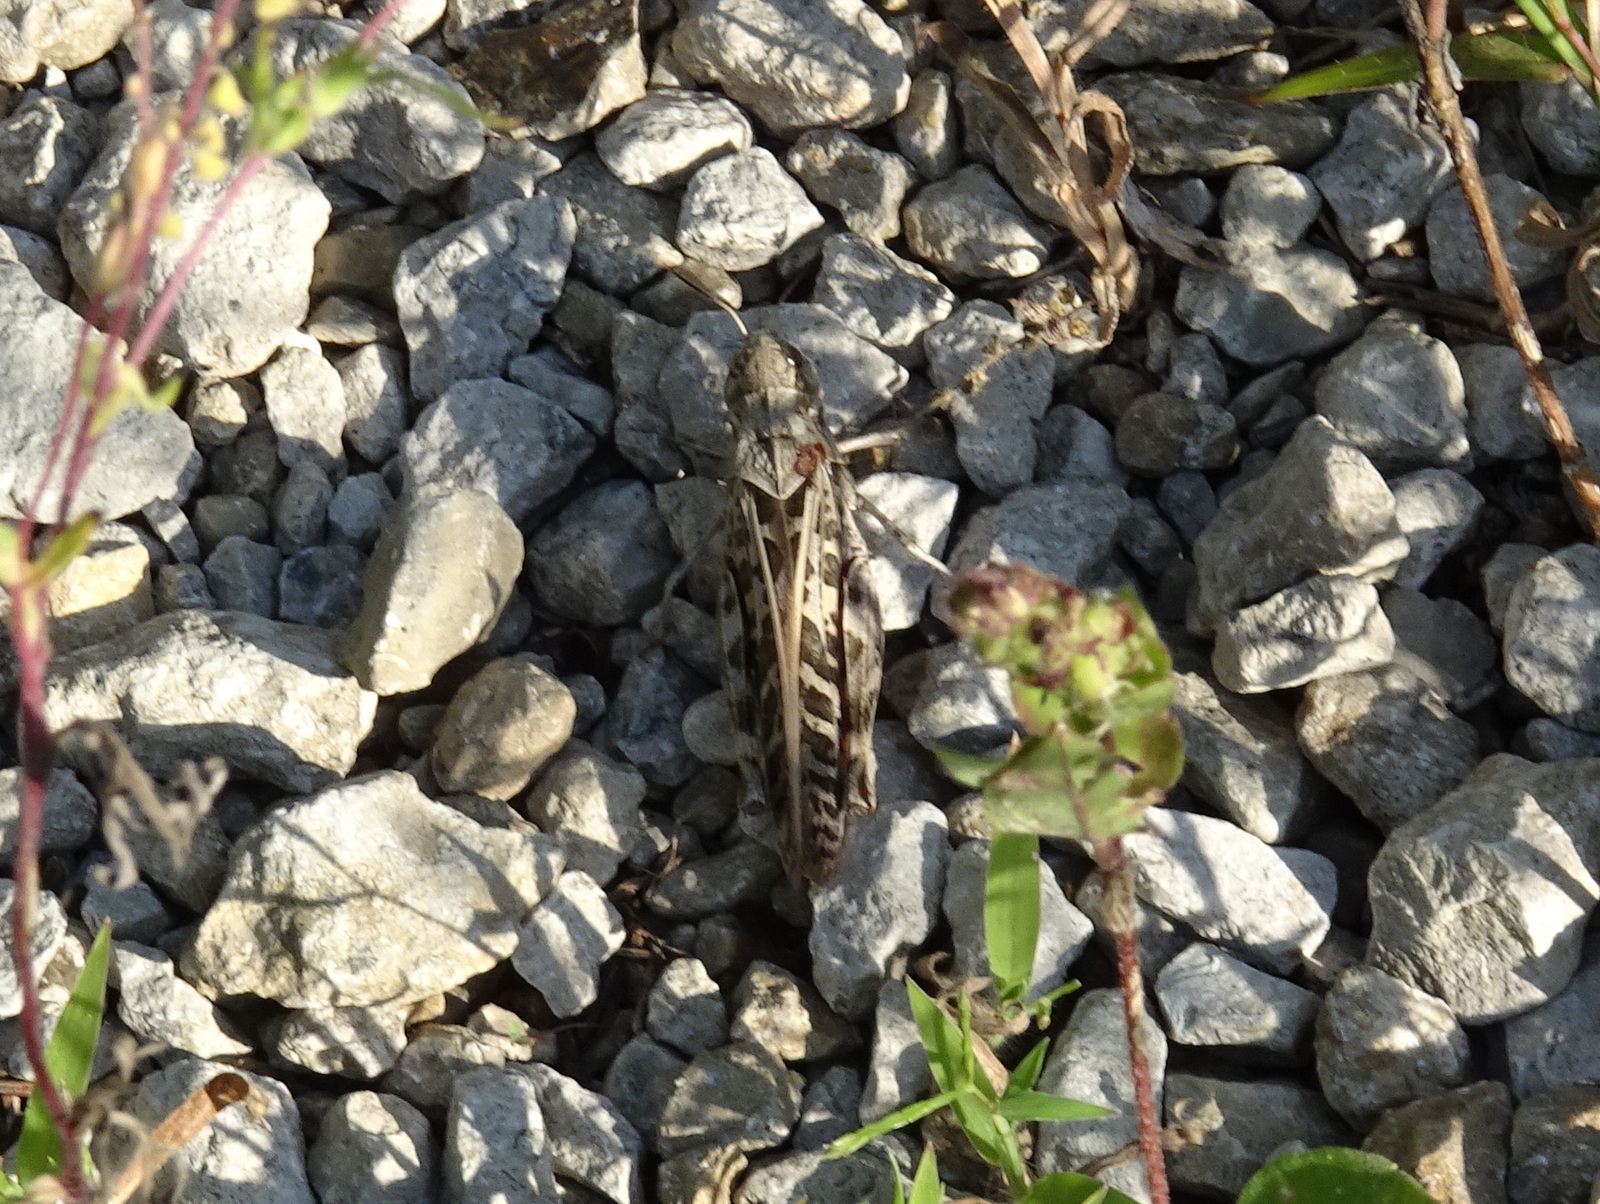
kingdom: Animalia
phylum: Arthropoda
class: Insecta
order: Orthoptera
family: Acrididae
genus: Hippiscus
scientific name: Hippiscus ocelote
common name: Wrinkled grasshopper
